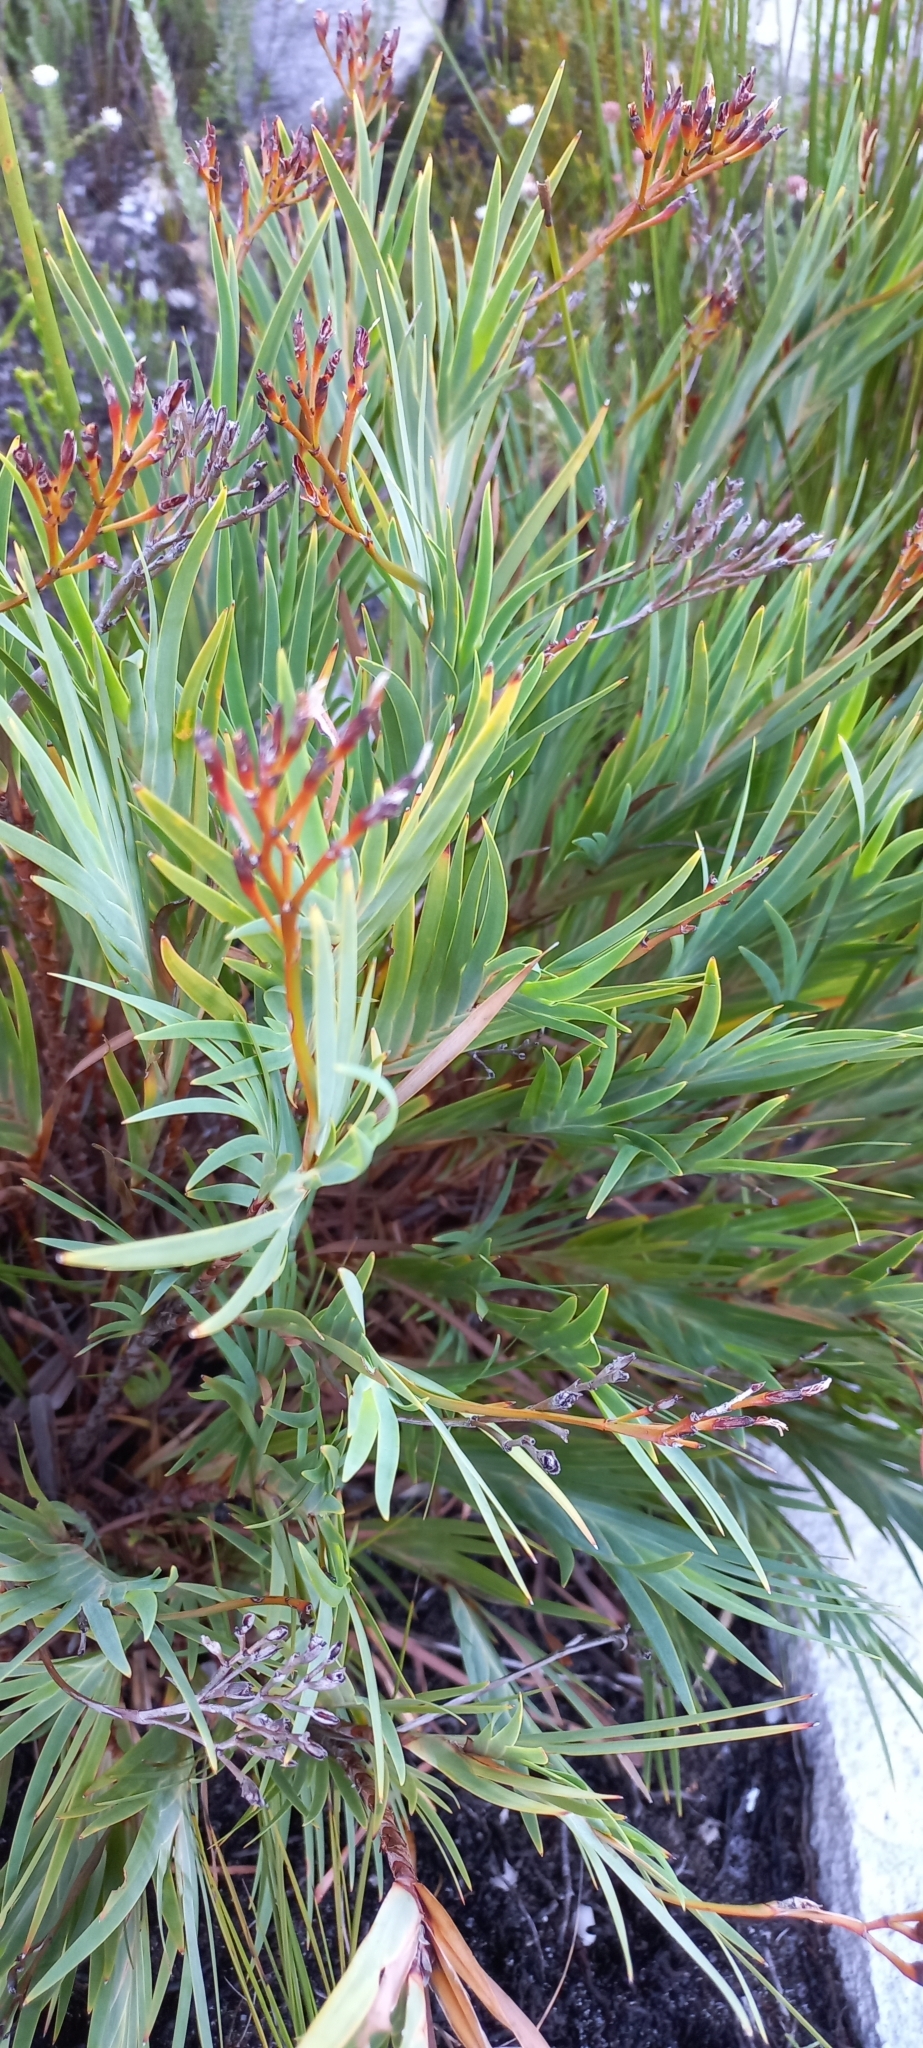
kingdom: Plantae
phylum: Tracheophyta
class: Liliopsida
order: Asparagales
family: Iridaceae
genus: Nivenia
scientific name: Nivenia stokoei
